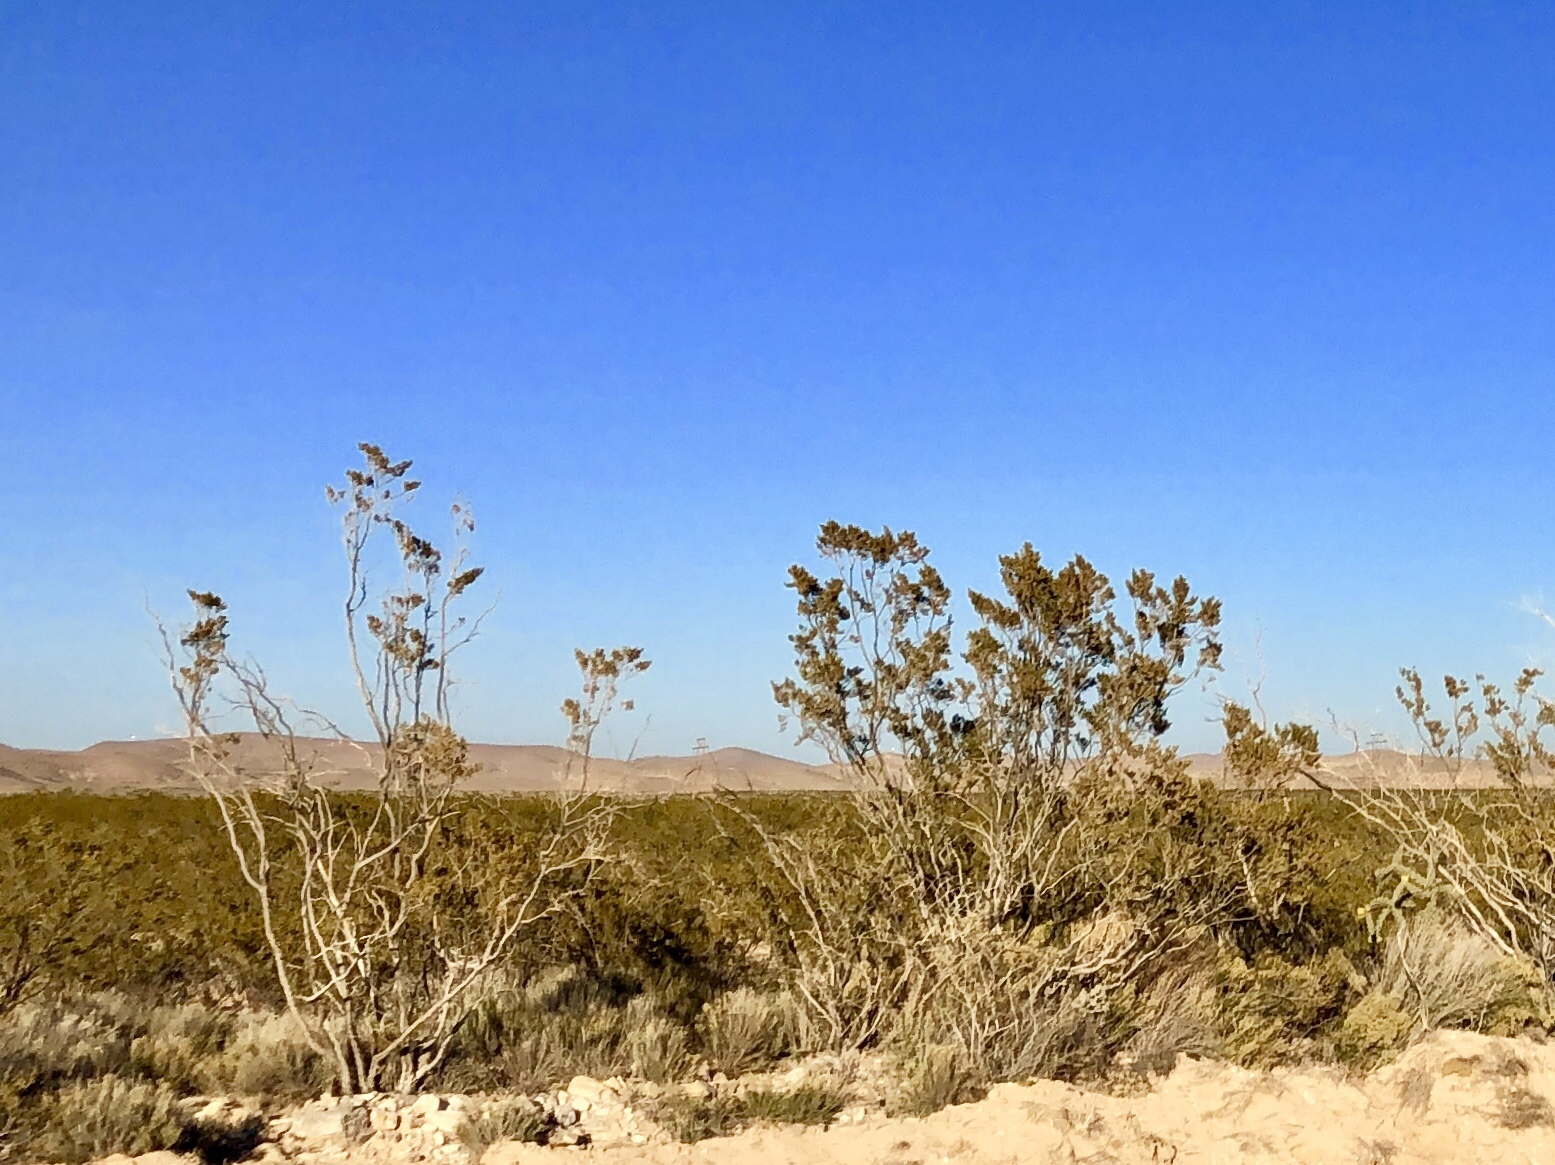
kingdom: Plantae
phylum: Tracheophyta
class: Magnoliopsida
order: Zygophyllales
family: Zygophyllaceae
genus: Larrea
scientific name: Larrea tridentata
